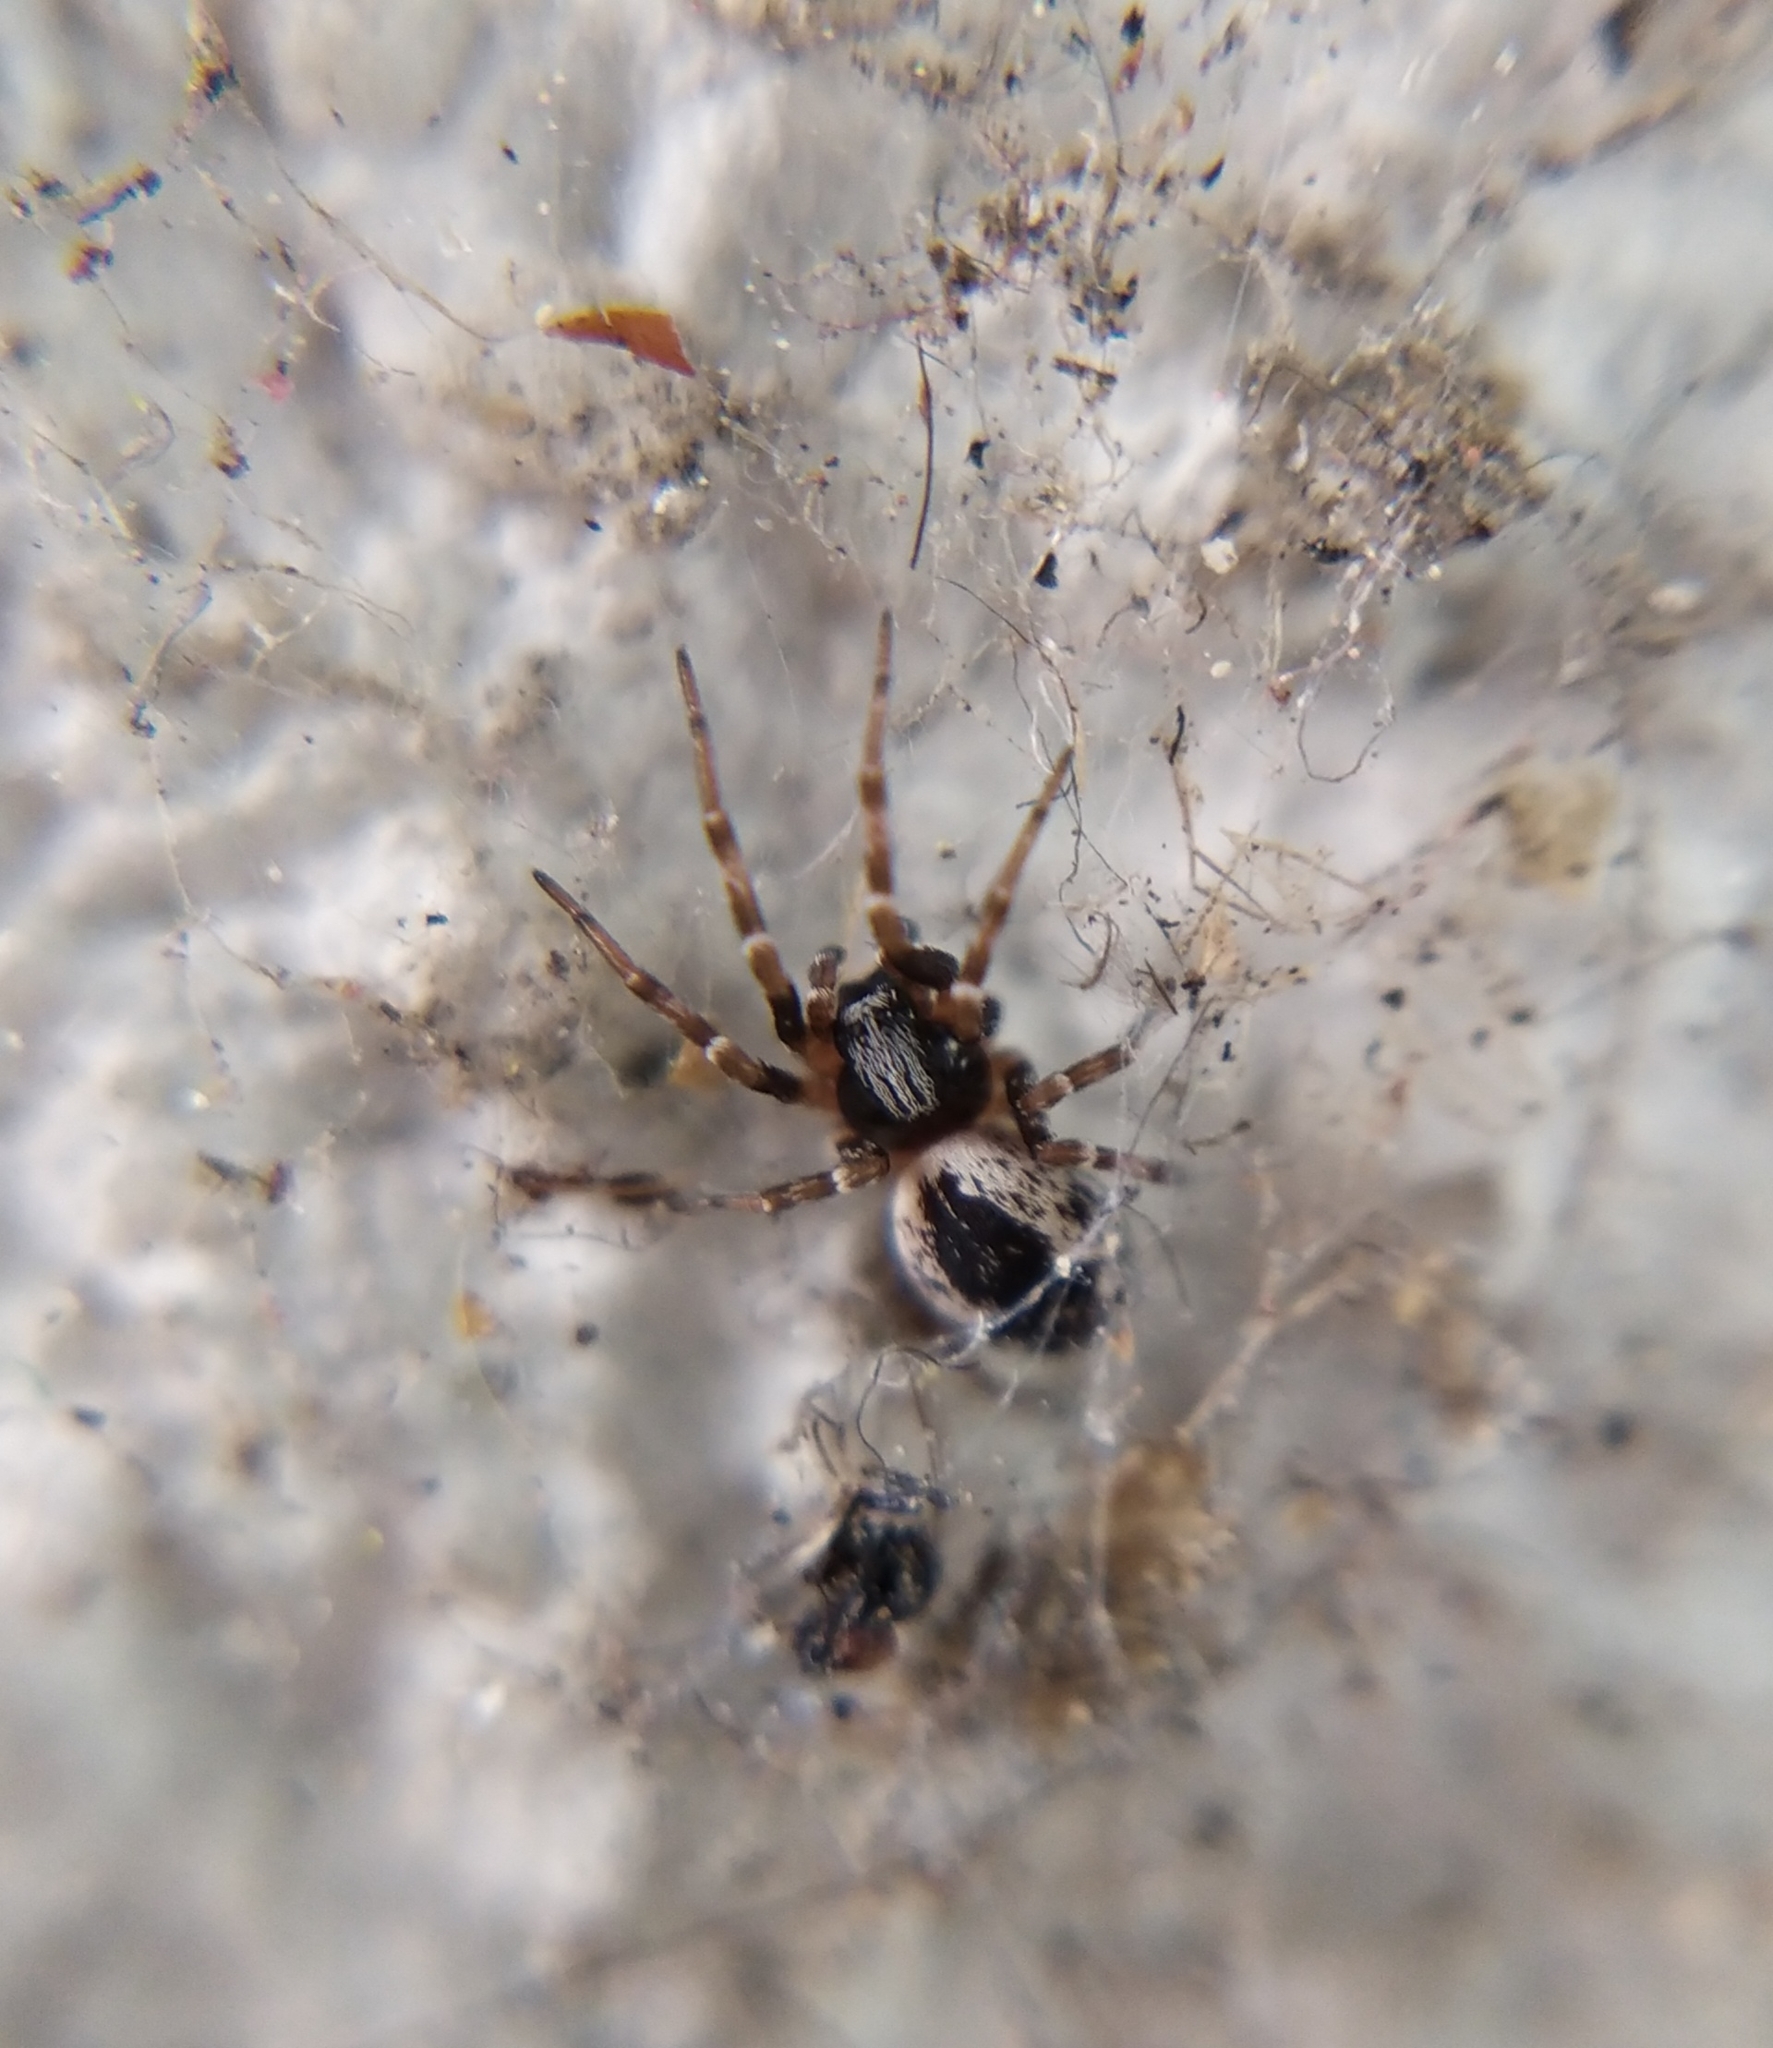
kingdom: Animalia
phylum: Arthropoda
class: Arachnida
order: Araneae
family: Dictynidae
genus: Brigittea
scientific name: Brigittea civica
